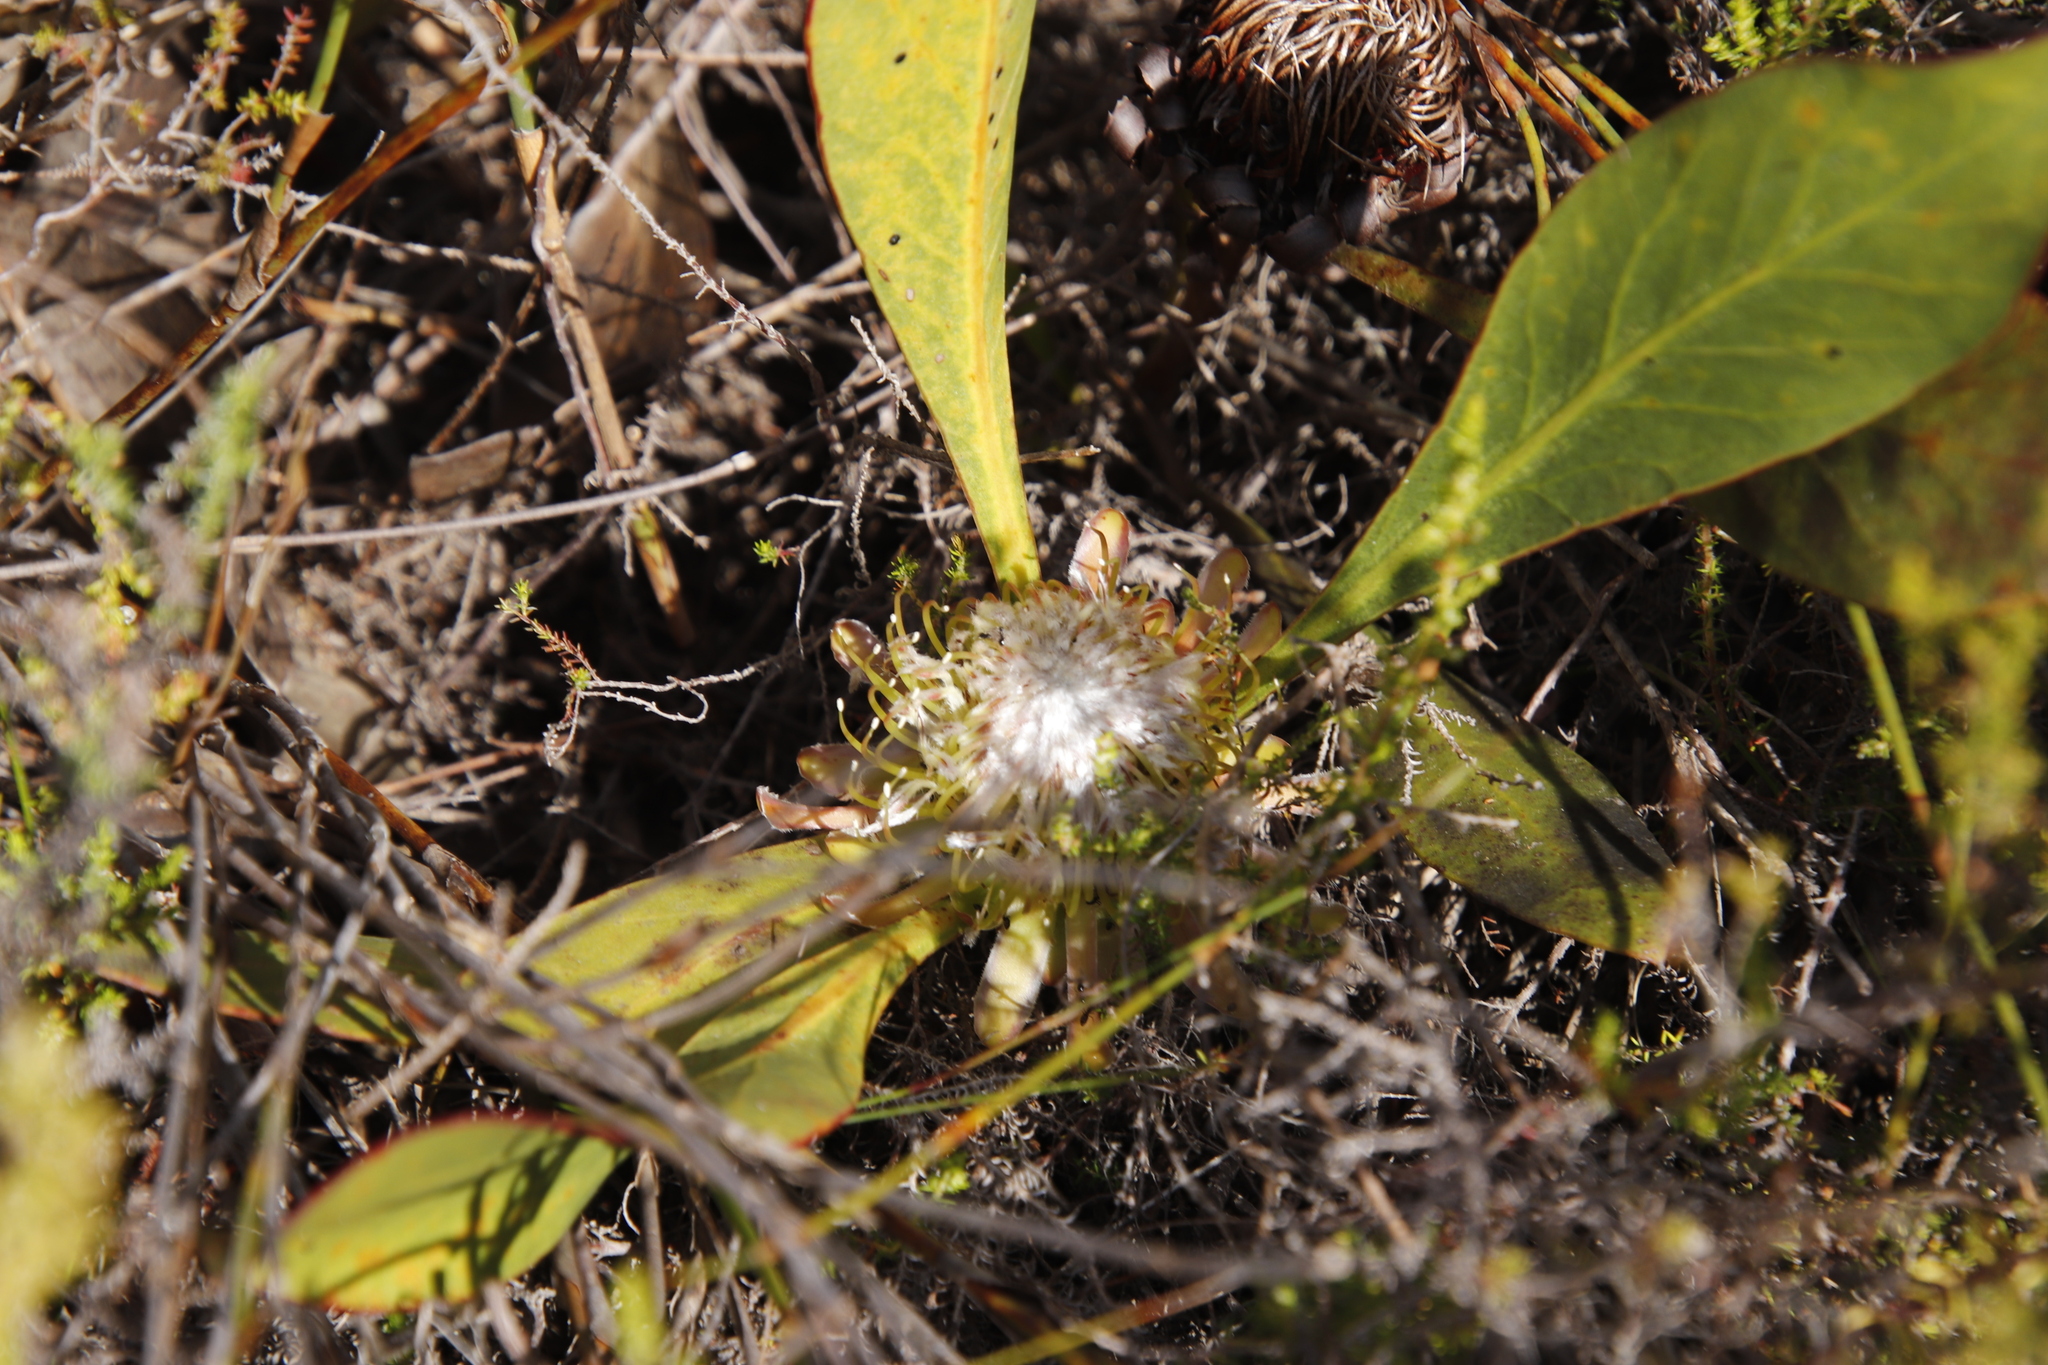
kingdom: Plantae
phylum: Tracheophyta
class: Magnoliopsida
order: Proteales
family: Proteaceae
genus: Protea
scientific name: Protea acaulos
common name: Common ground sugarbush
